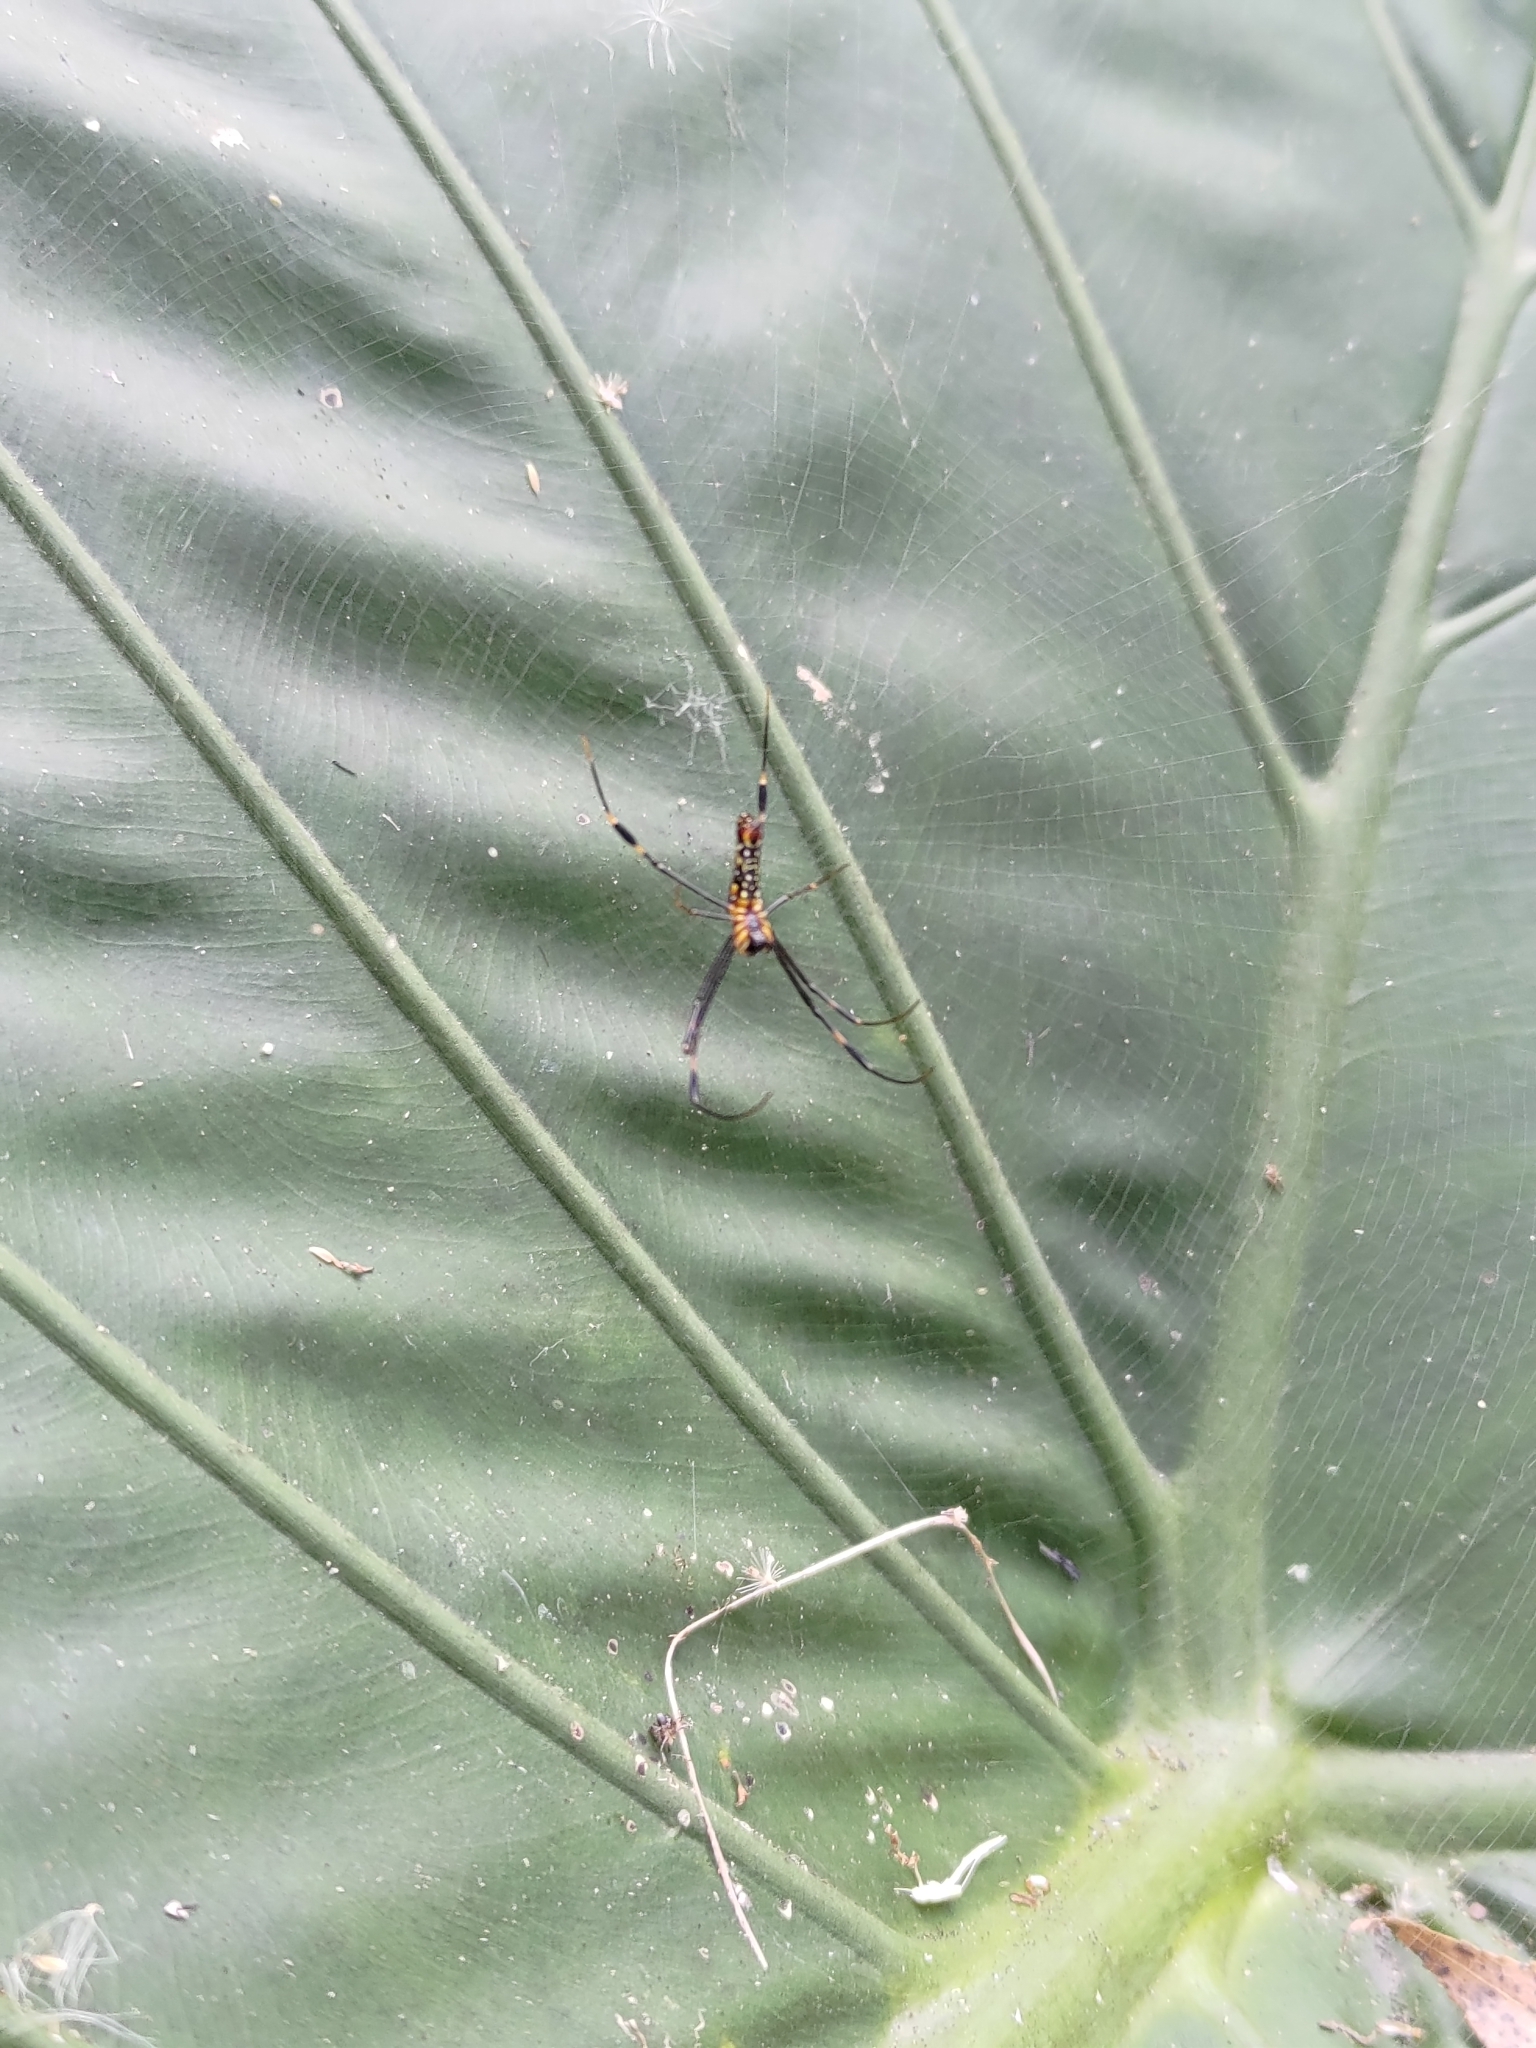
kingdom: Animalia
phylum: Arthropoda
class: Arachnida
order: Araneae
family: Araneidae
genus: Nephila
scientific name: Nephila pilipes
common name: Giant golden orb weaver
